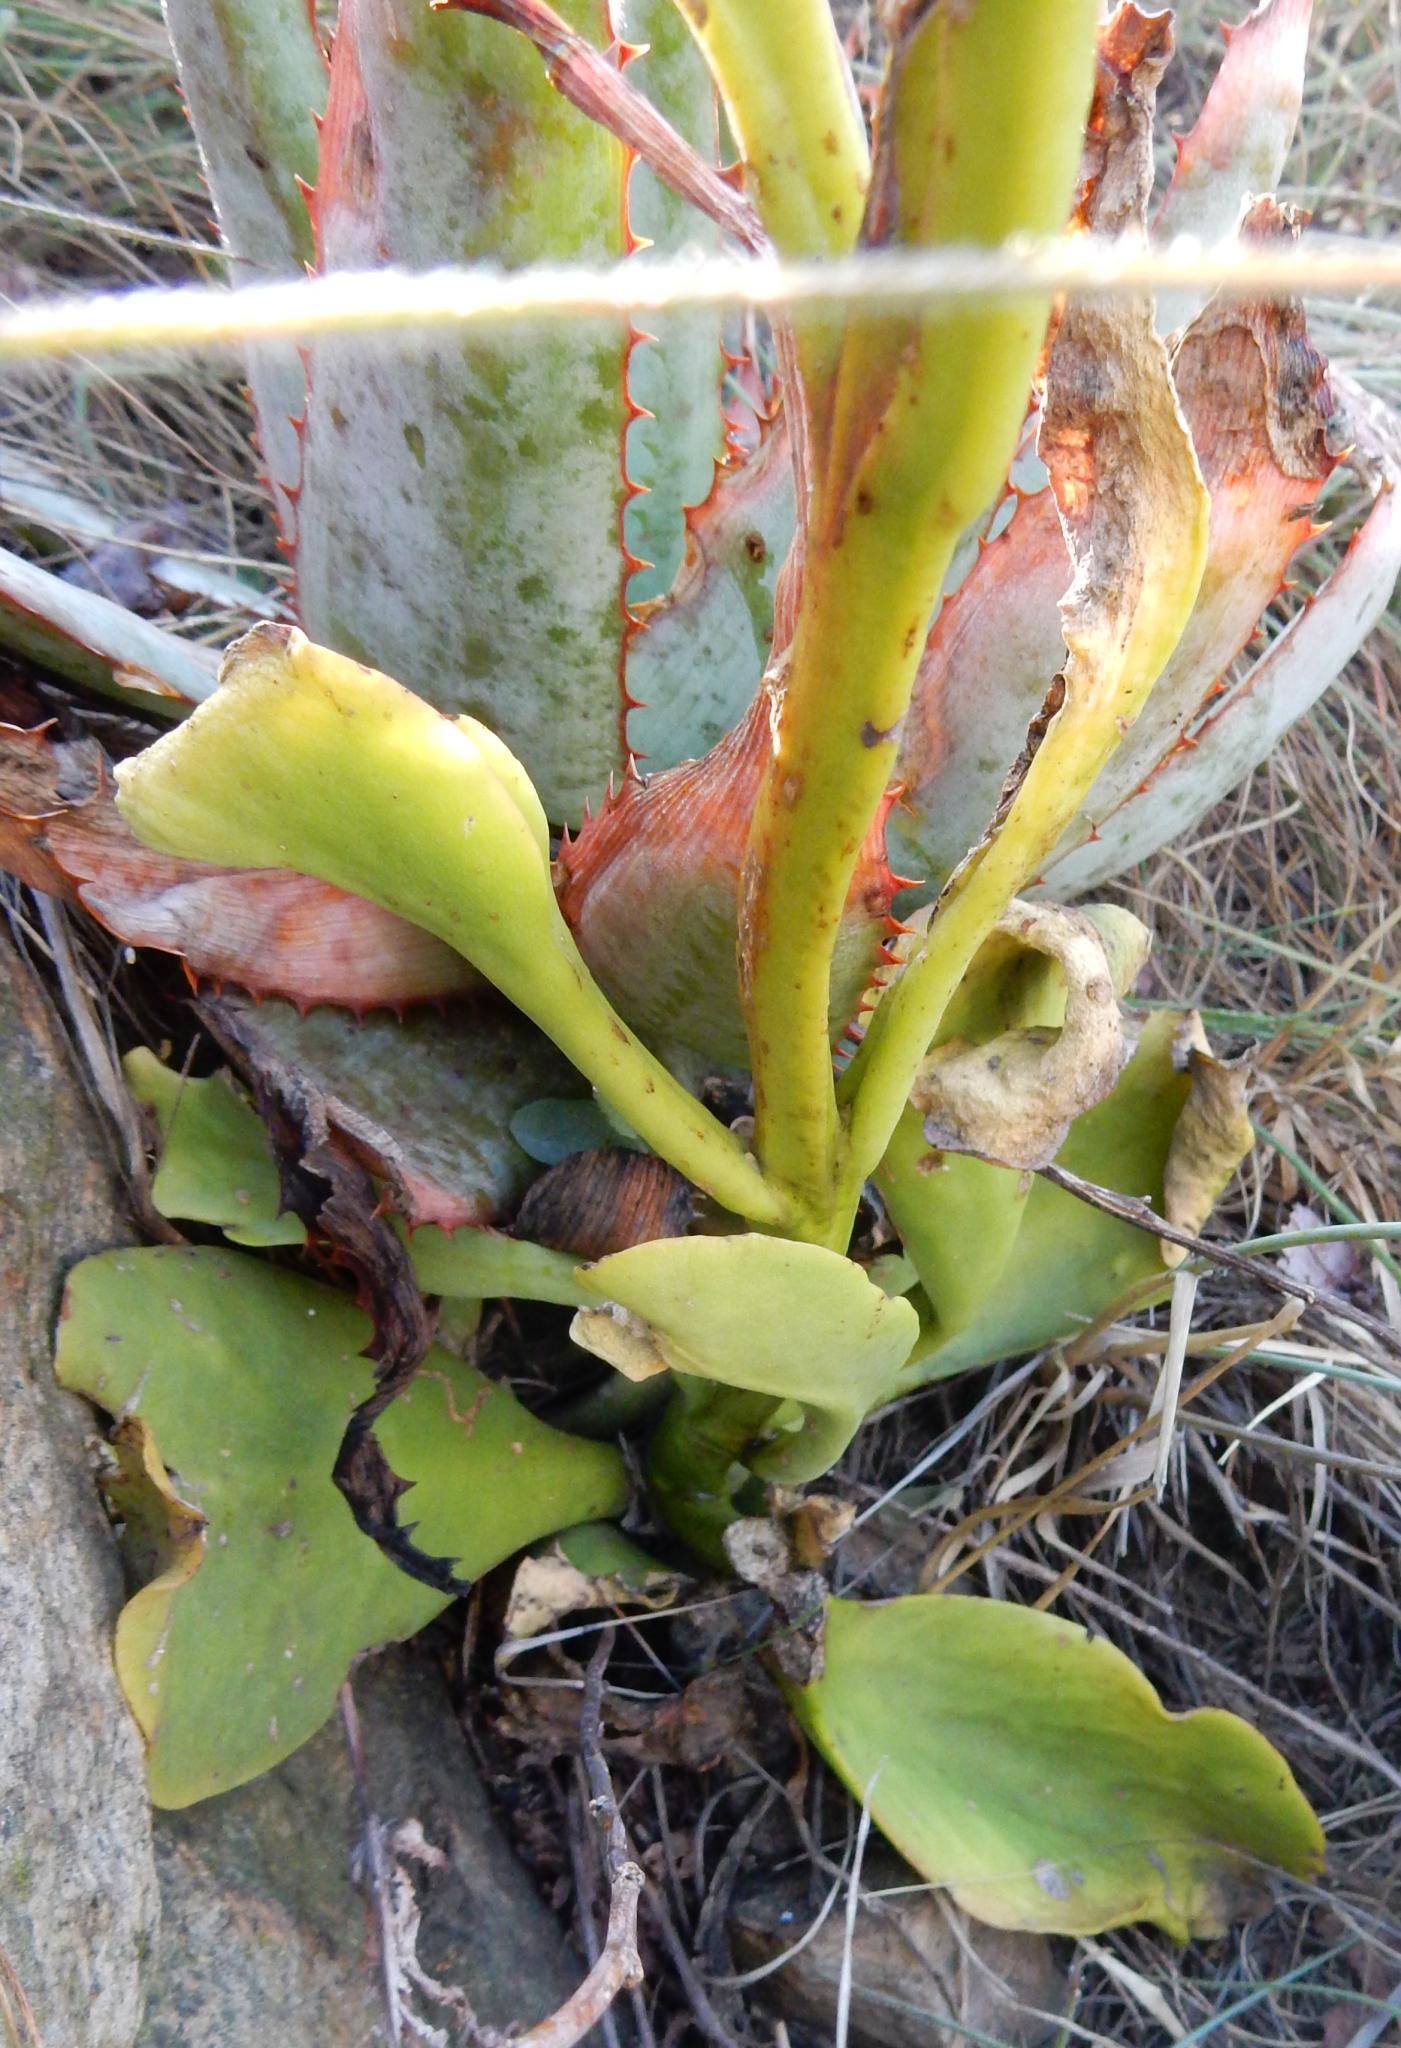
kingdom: Plantae
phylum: Tracheophyta
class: Magnoliopsida
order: Saxifragales
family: Crassulaceae
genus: Kalanchoe
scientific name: Kalanchoe paniculata
